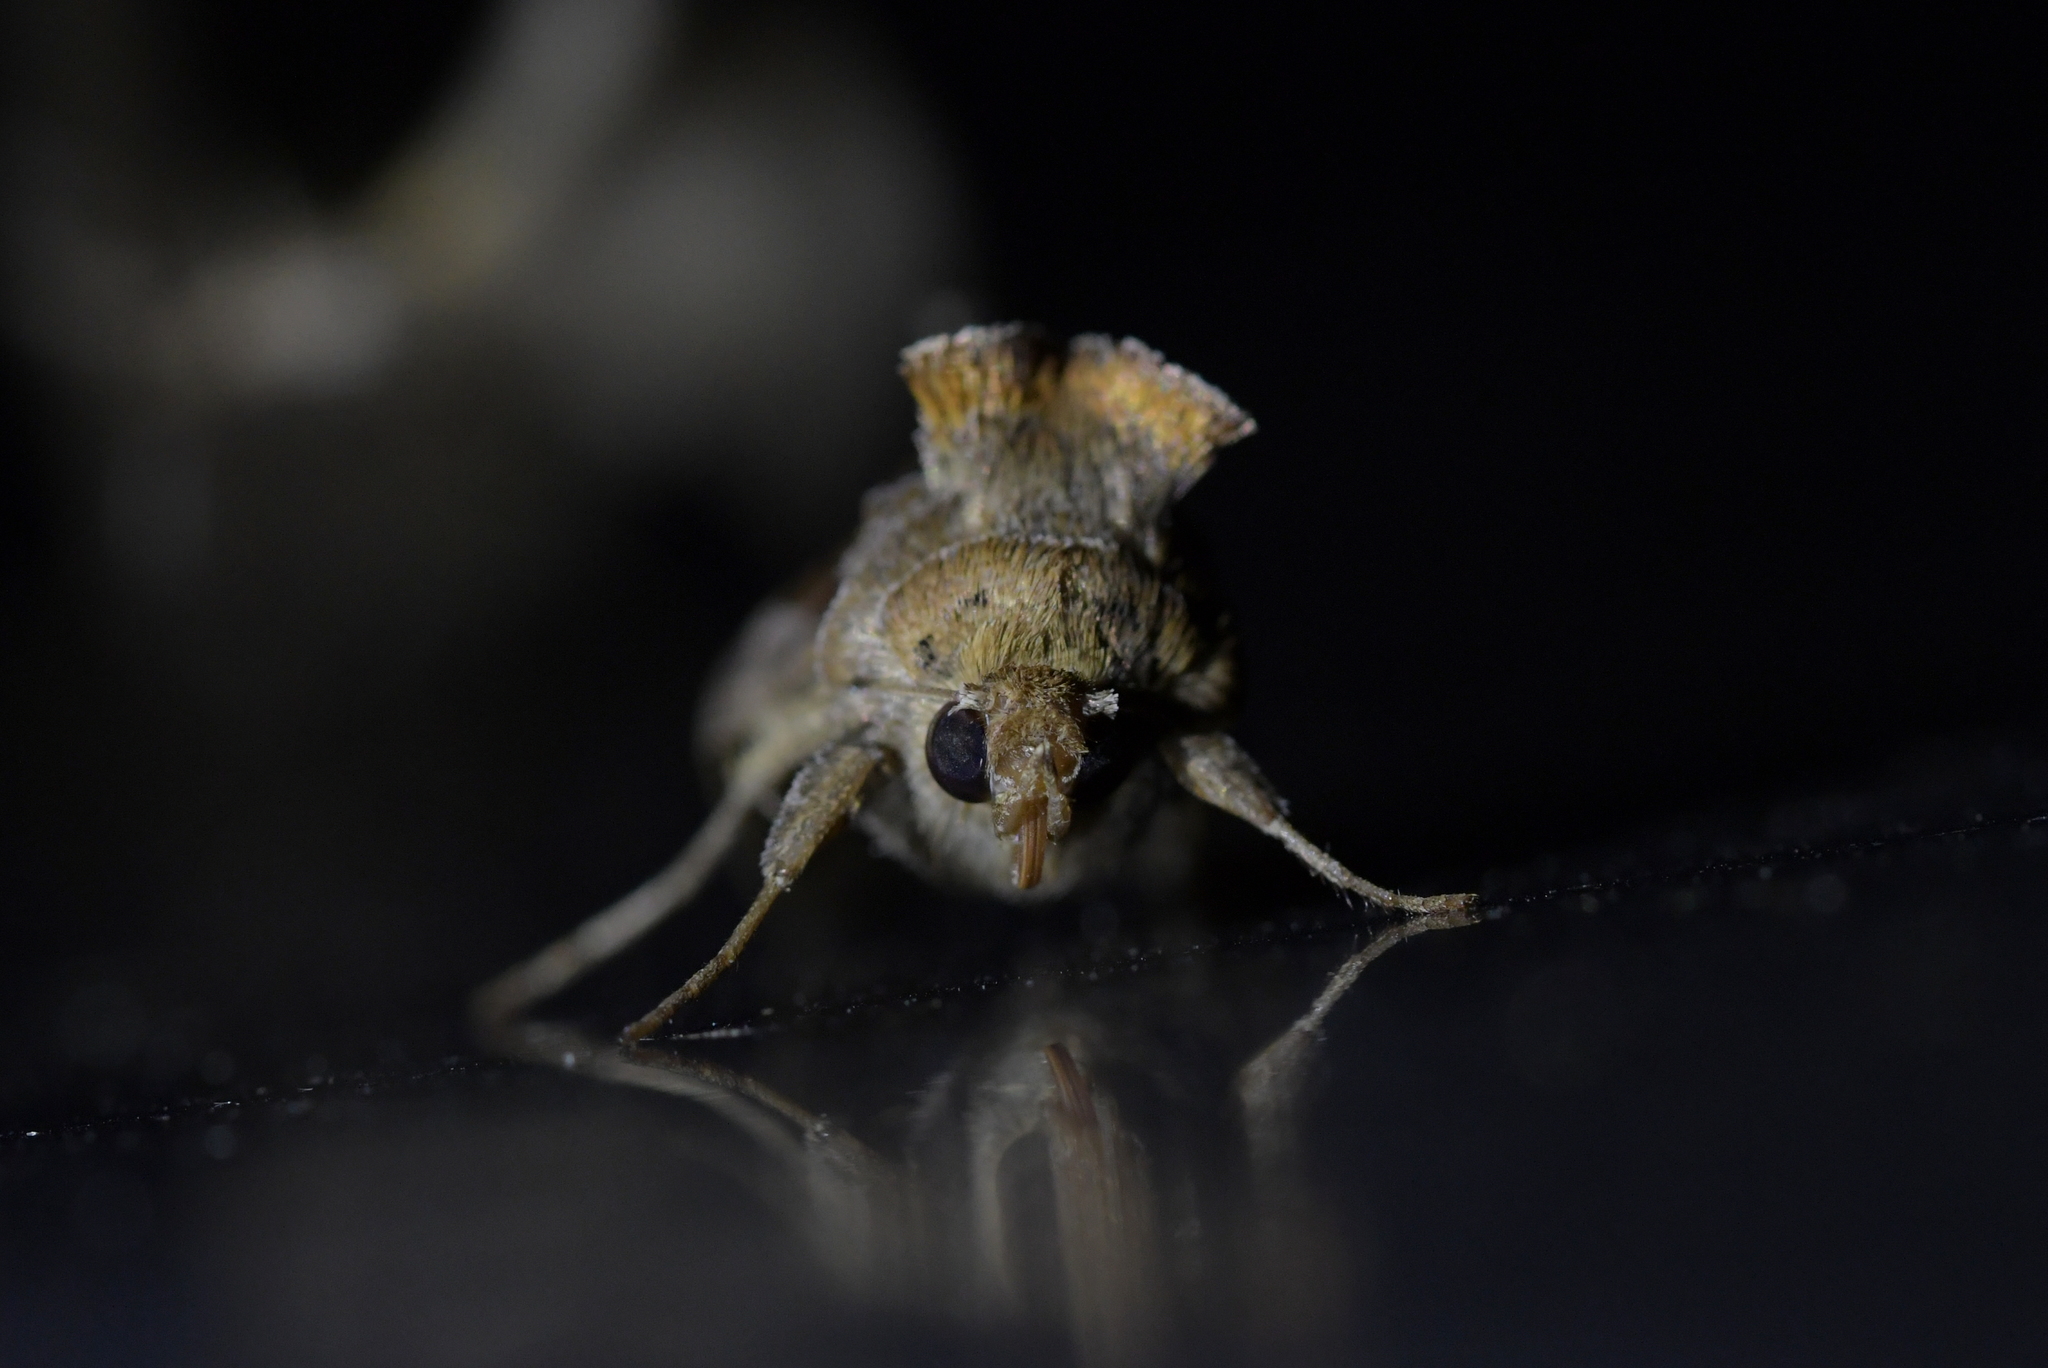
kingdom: Animalia
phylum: Arthropoda
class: Insecta
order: Lepidoptera
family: Noctuidae
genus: Chrysodeixis
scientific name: Chrysodeixis eriosoma
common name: Green garden looper
